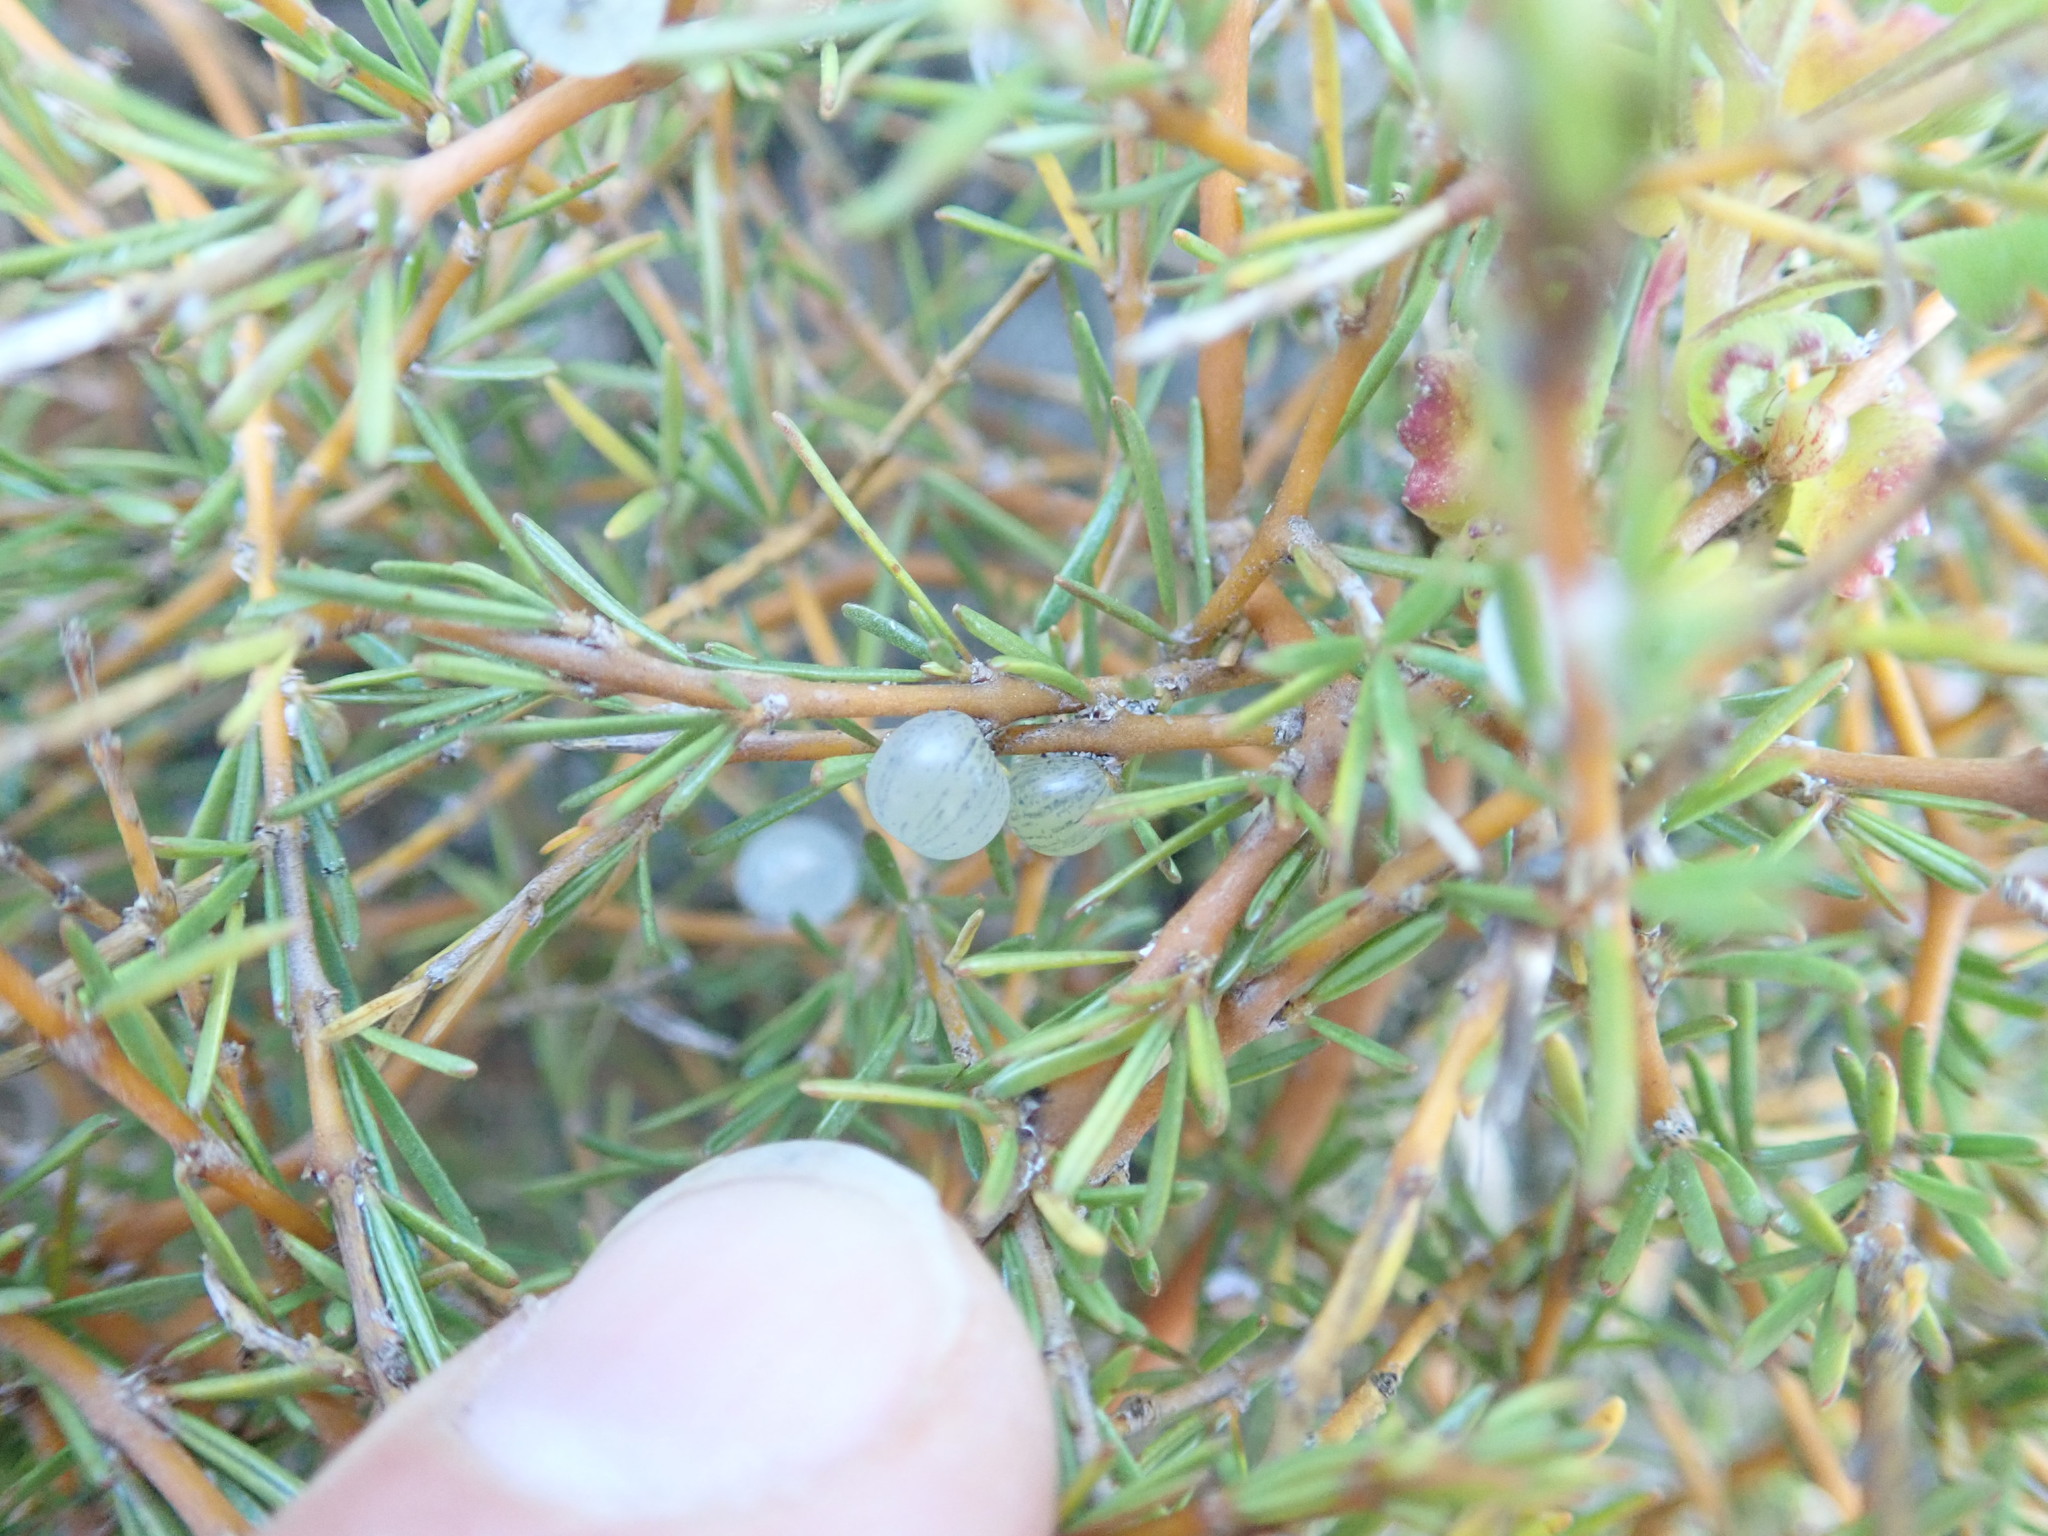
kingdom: Plantae
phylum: Tracheophyta
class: Magnoliopsida
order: Gentianales
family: Rubiaceae
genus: Coprosma
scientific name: Coprosma acerosa
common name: Sand coprosma
